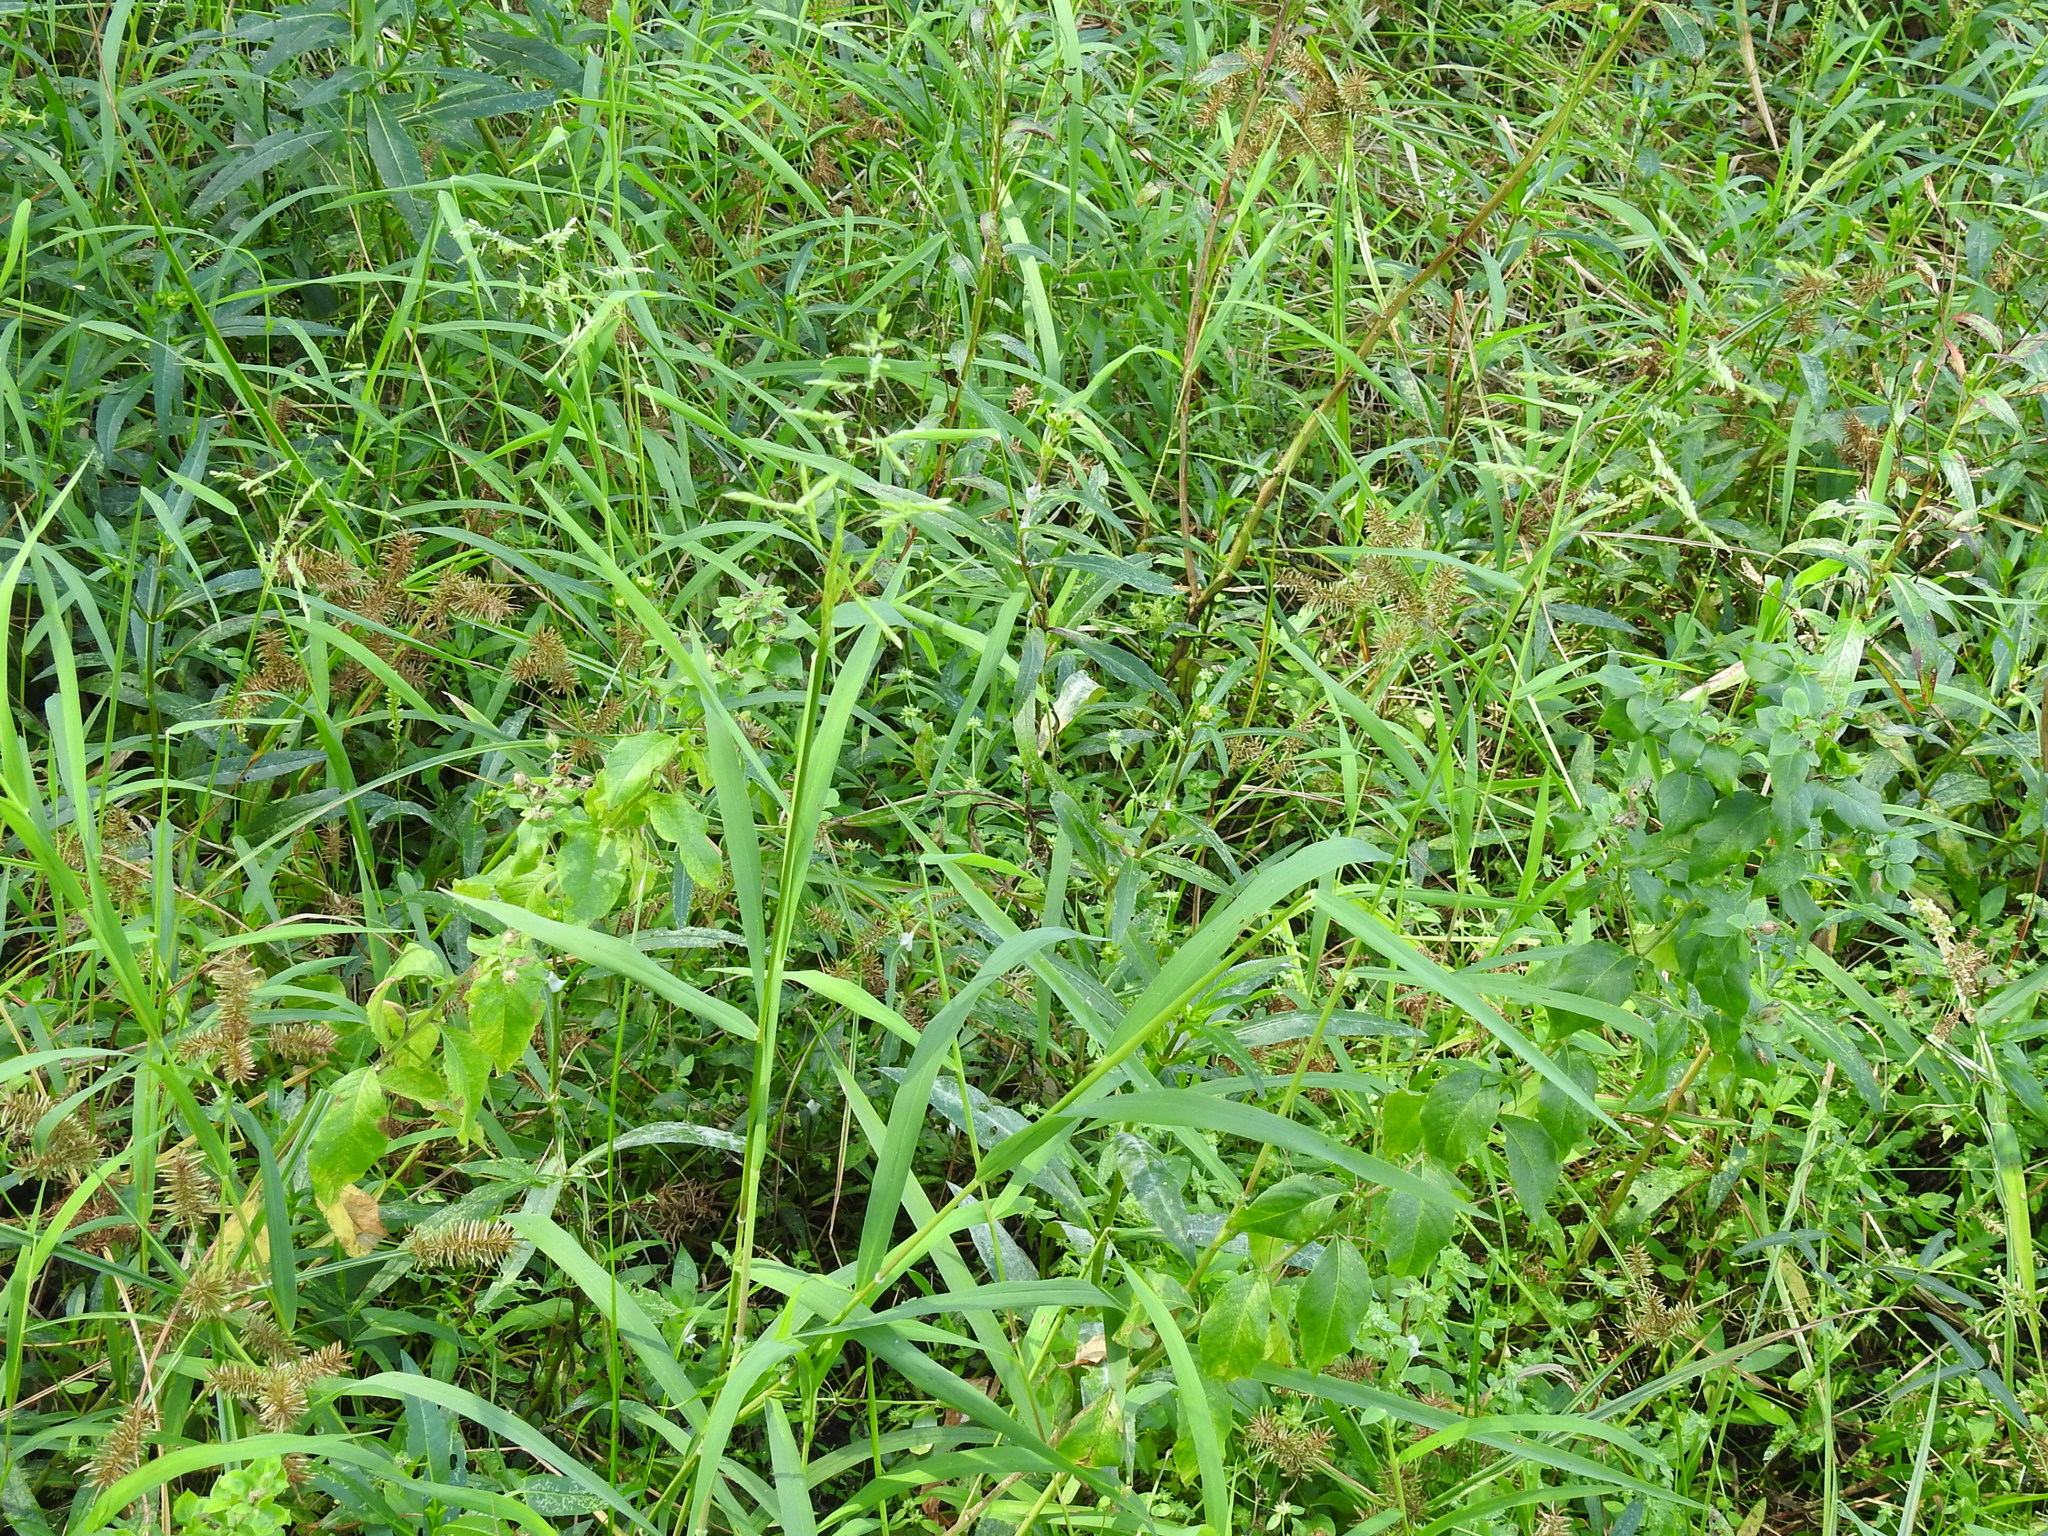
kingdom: Plantae
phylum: Tracheophyta
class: Liliopsida
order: Poales
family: Poaceae
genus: Leersia
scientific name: Leersia oryzoides
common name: Cut-grass
